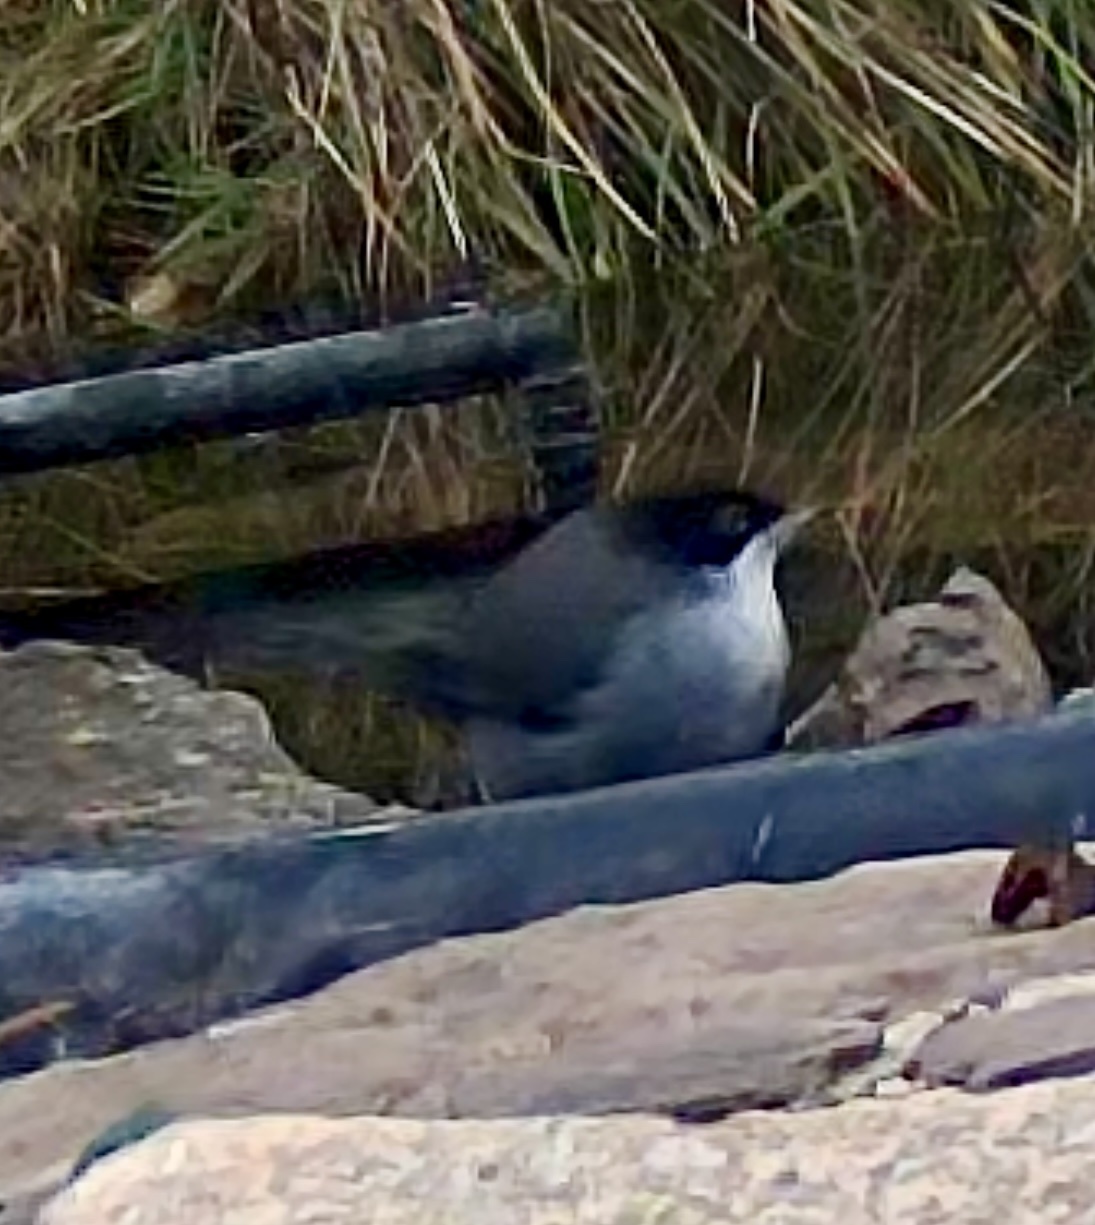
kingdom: Animalia
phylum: Chordata
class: Aves
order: Passeriformes
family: Sylviidae
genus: Curruca
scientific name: Curruca melanocephala
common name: Sardinian warbler
